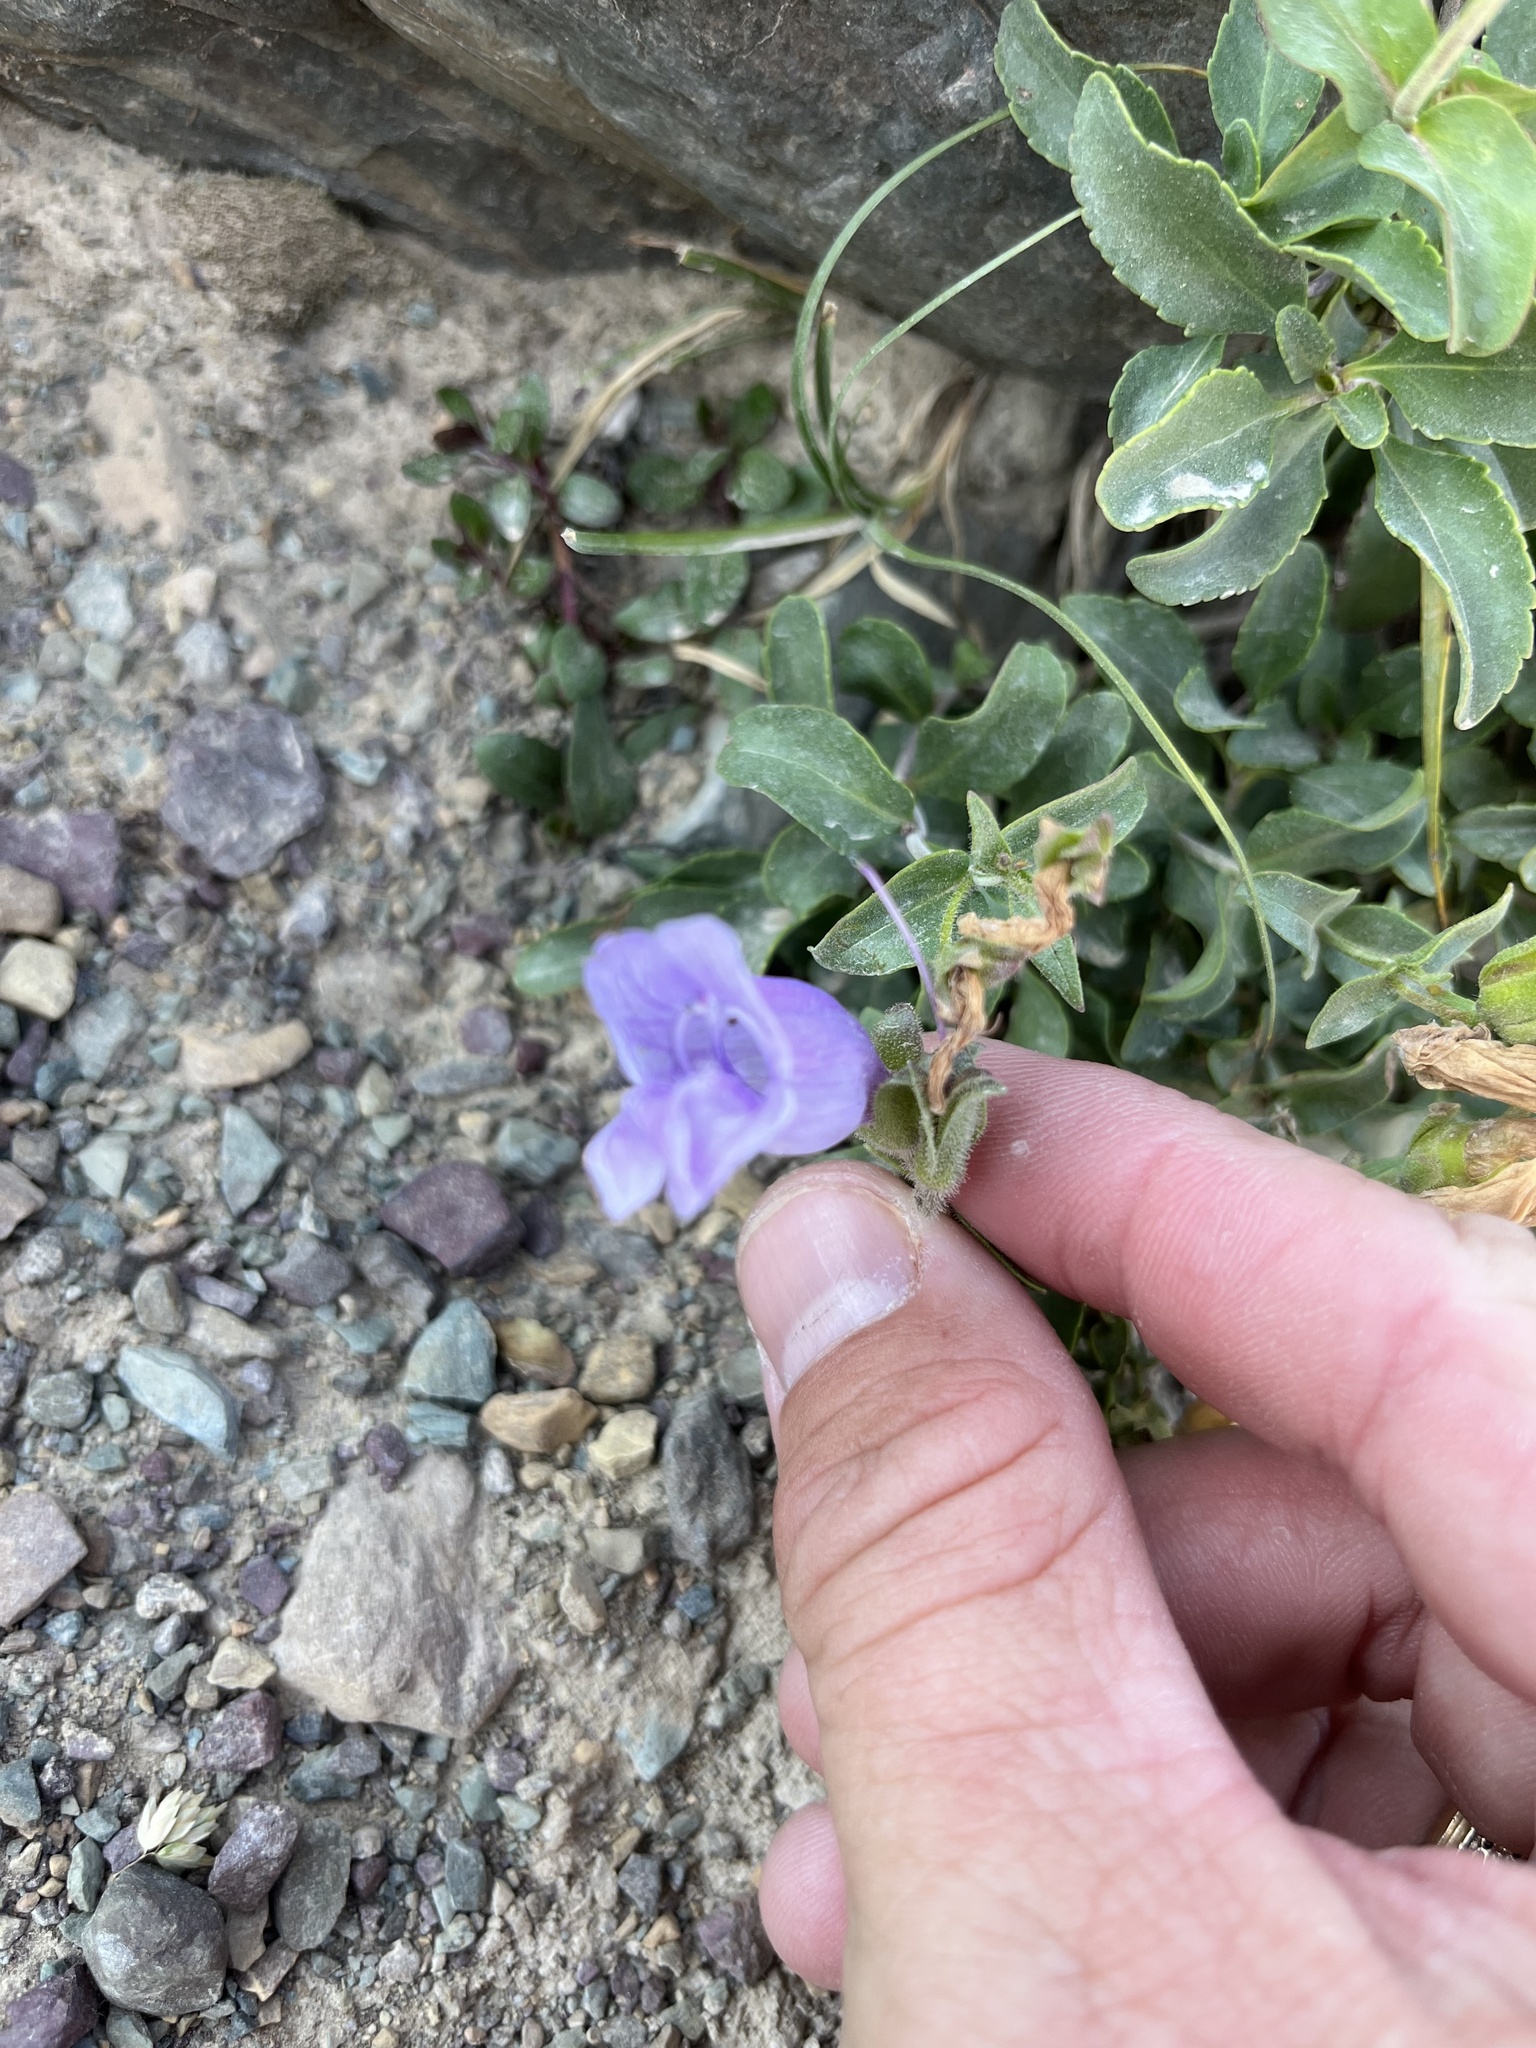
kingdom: Plantae
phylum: Tracheophyta
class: Magnoliopsida
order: Lamiales
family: Plantaginaceae
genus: Penstemon
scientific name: Penstemon ellipticus
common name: Alpine beardtongue
